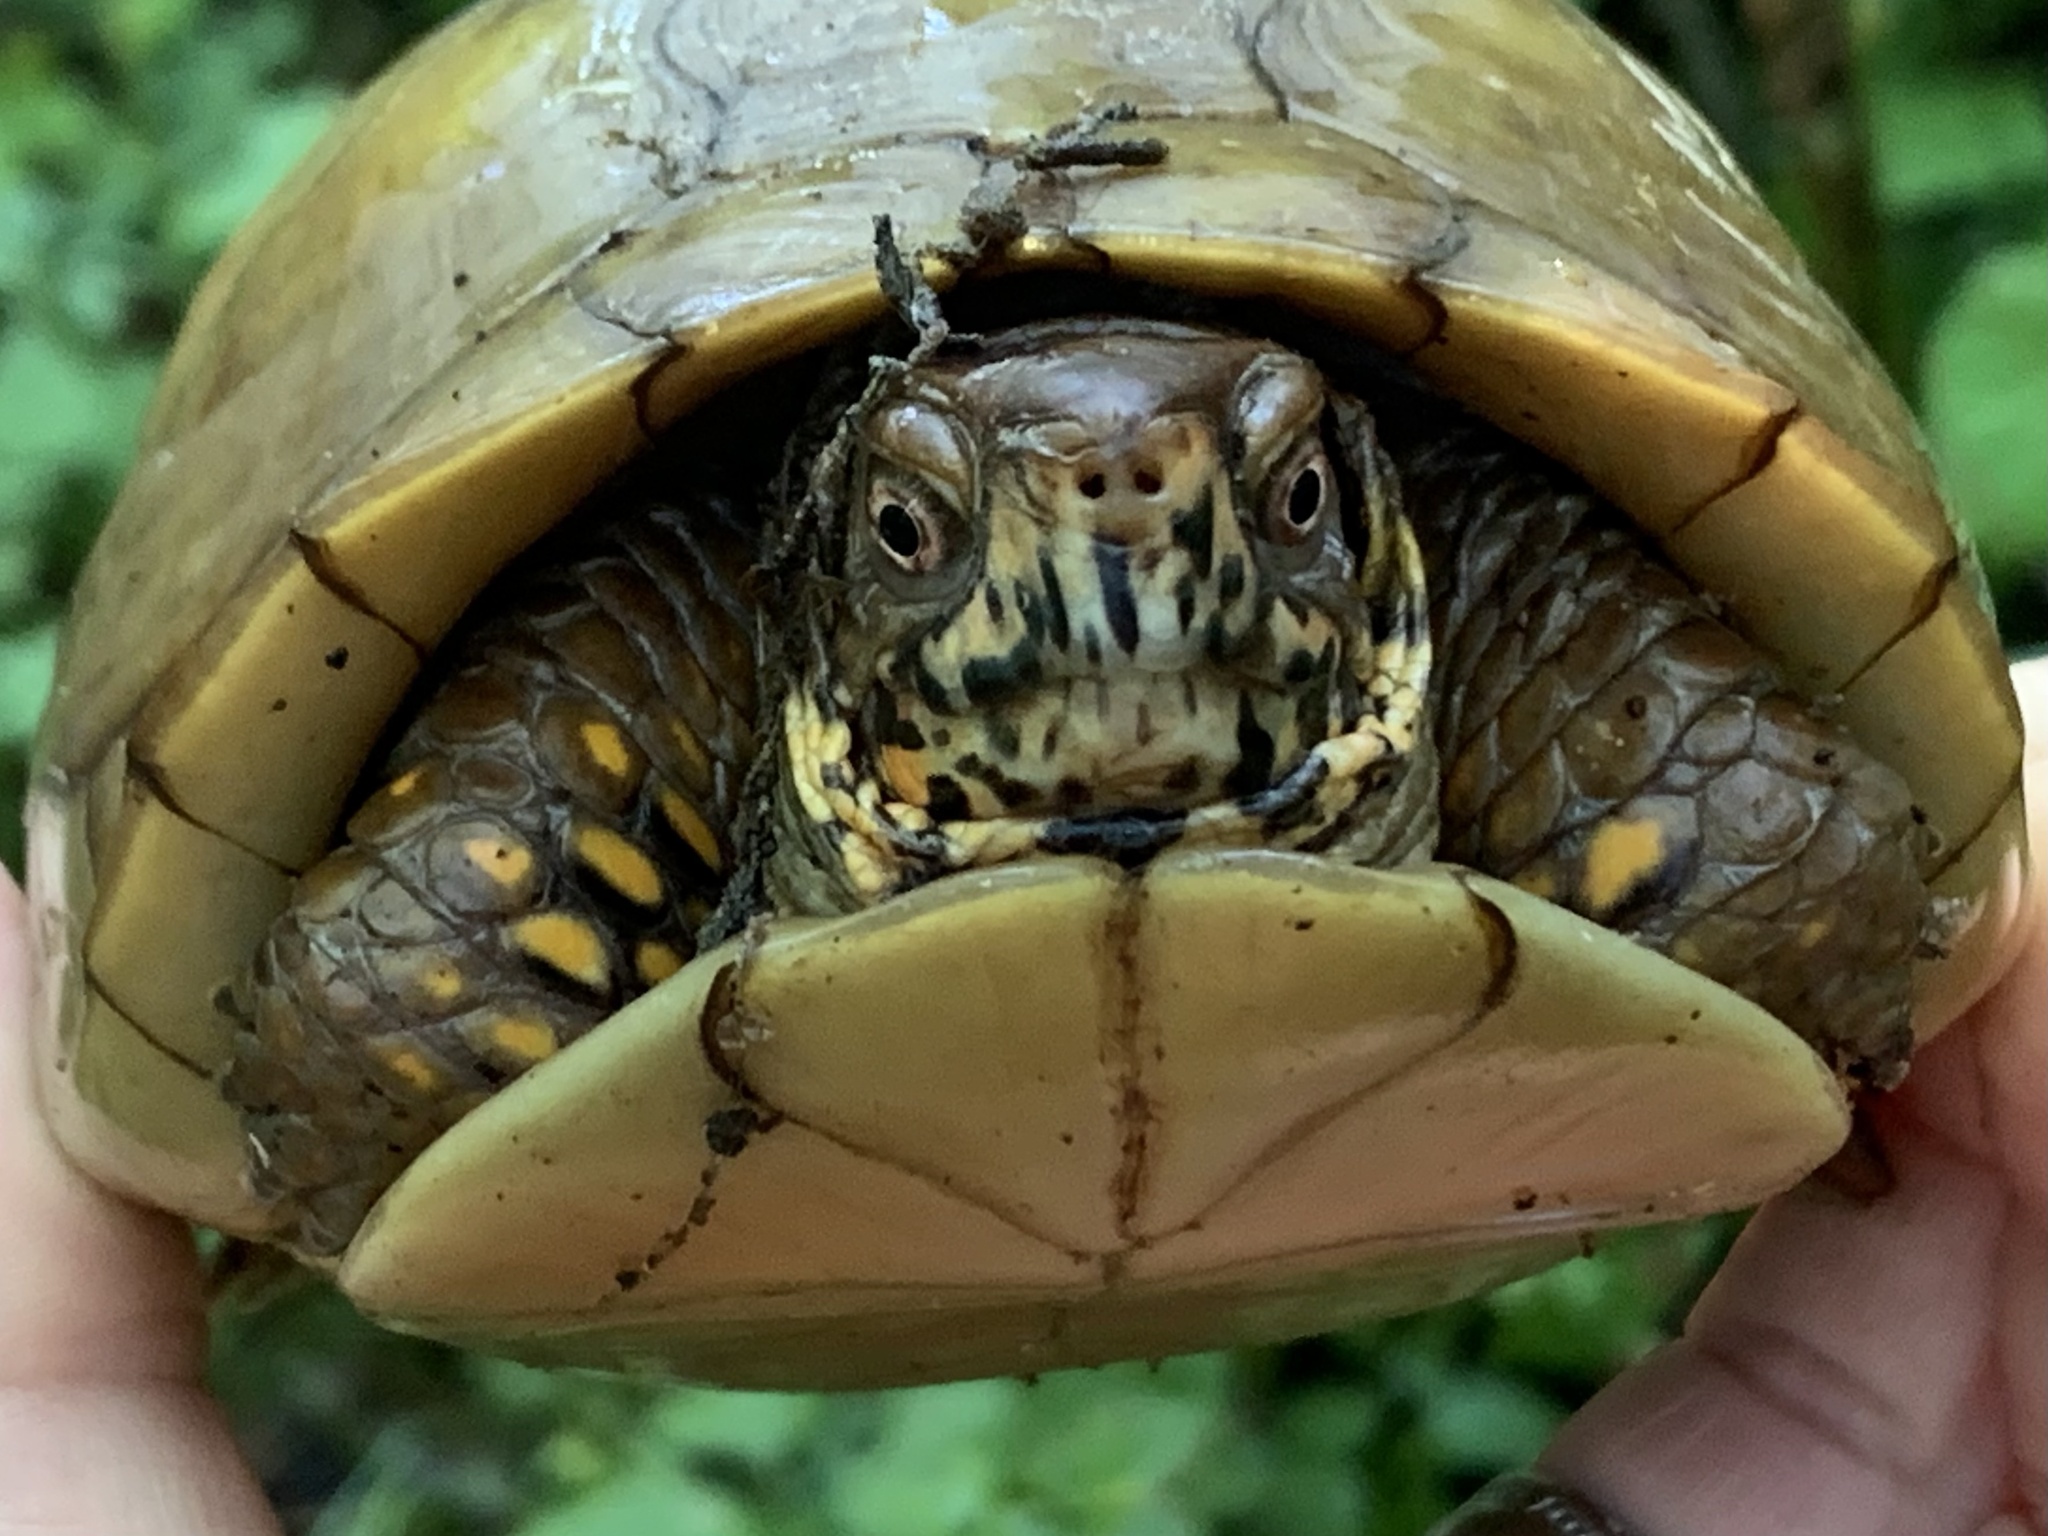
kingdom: Animalia
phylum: Chordata
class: Testudines
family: Emydidae
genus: Terrapene
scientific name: Terrapene carolina
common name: Common box turtle
